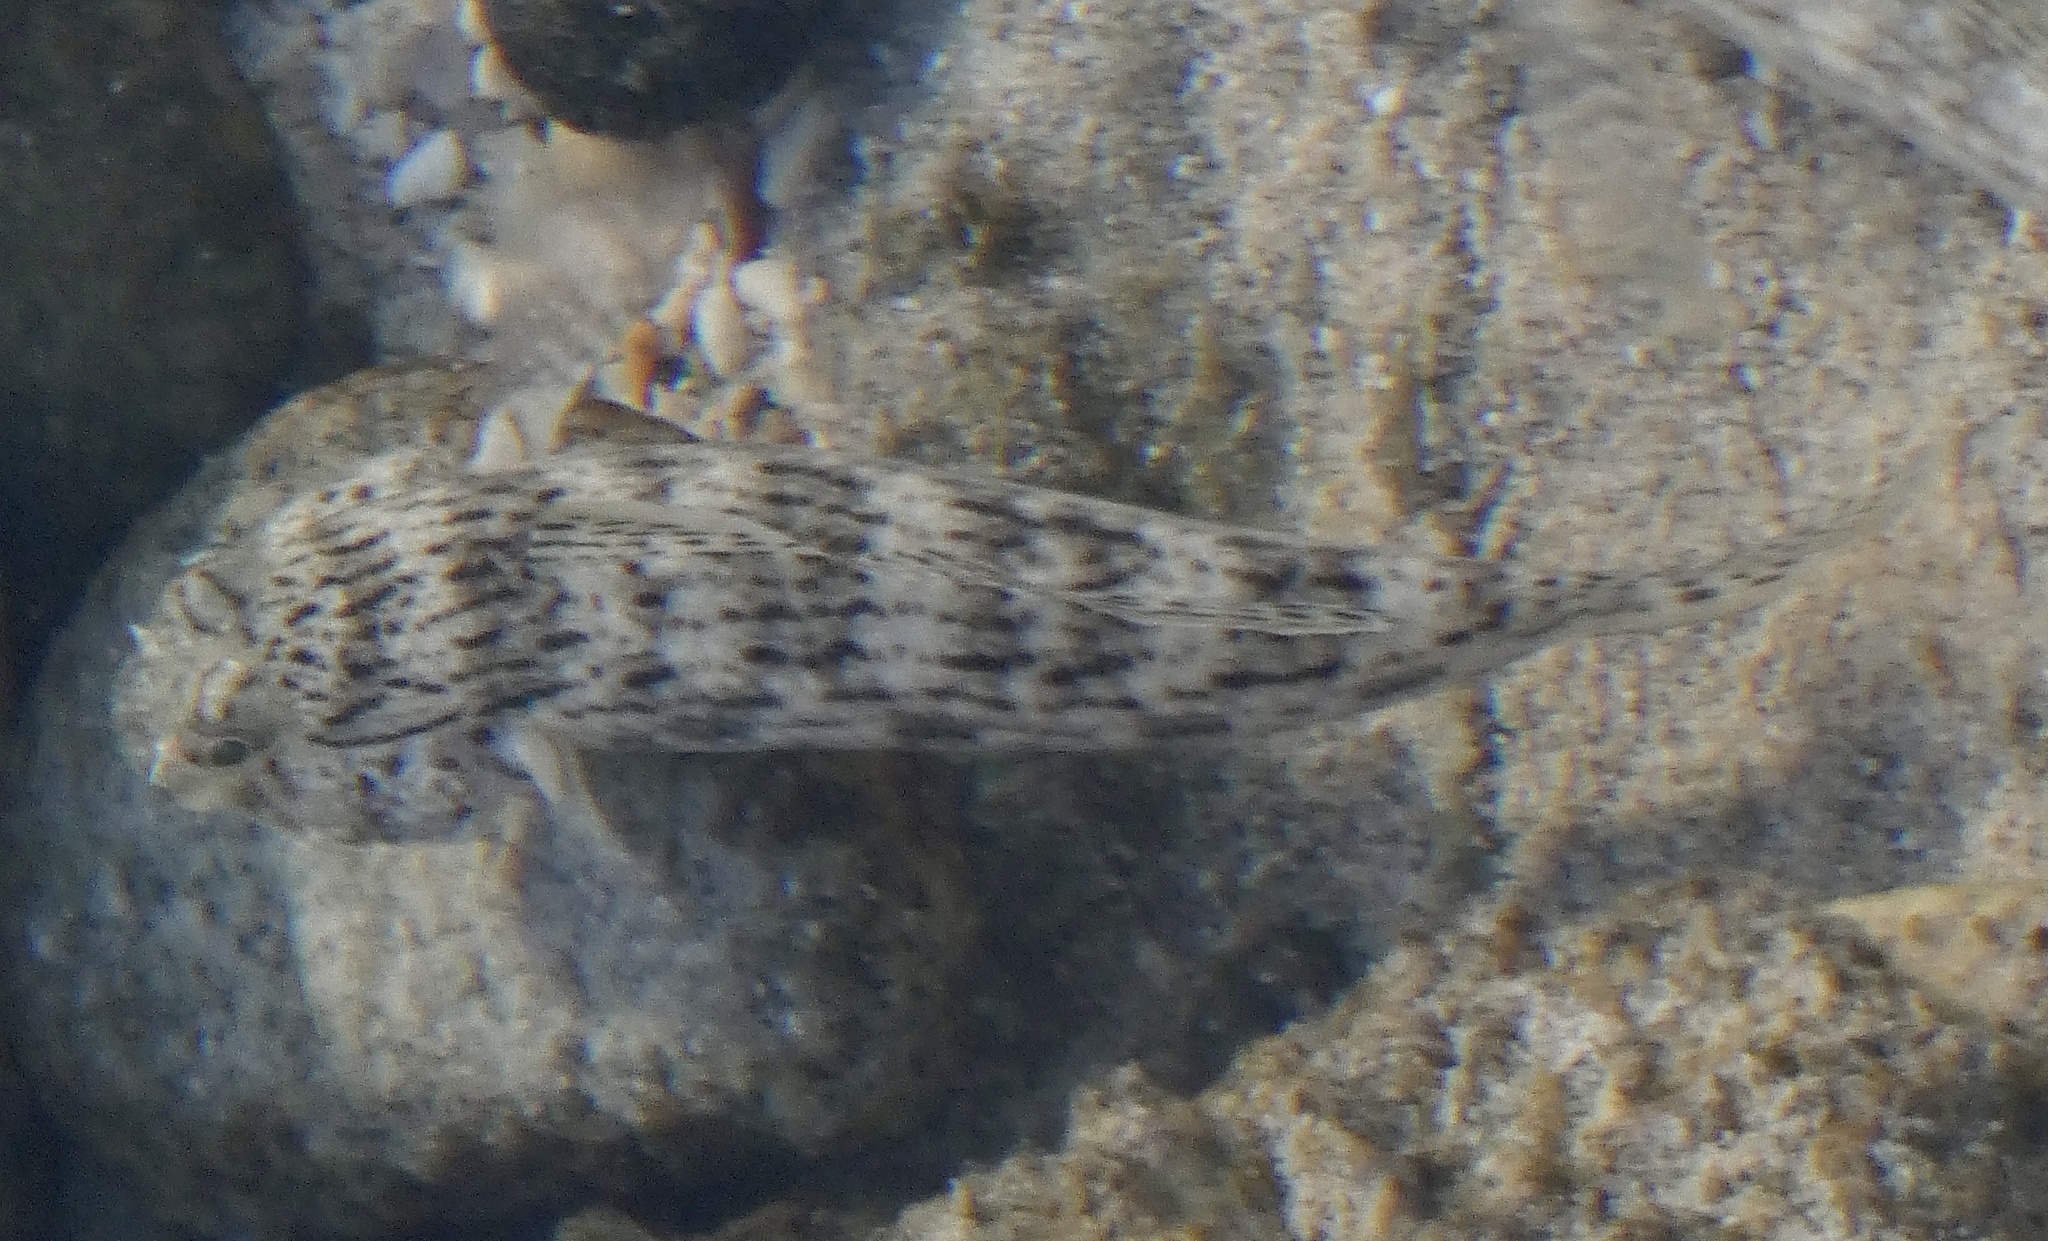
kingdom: Animalia
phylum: Chordata
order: Perciformes
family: Gobiidae
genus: Istigobius
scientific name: Istigobius ornatus
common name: Ornate goby
